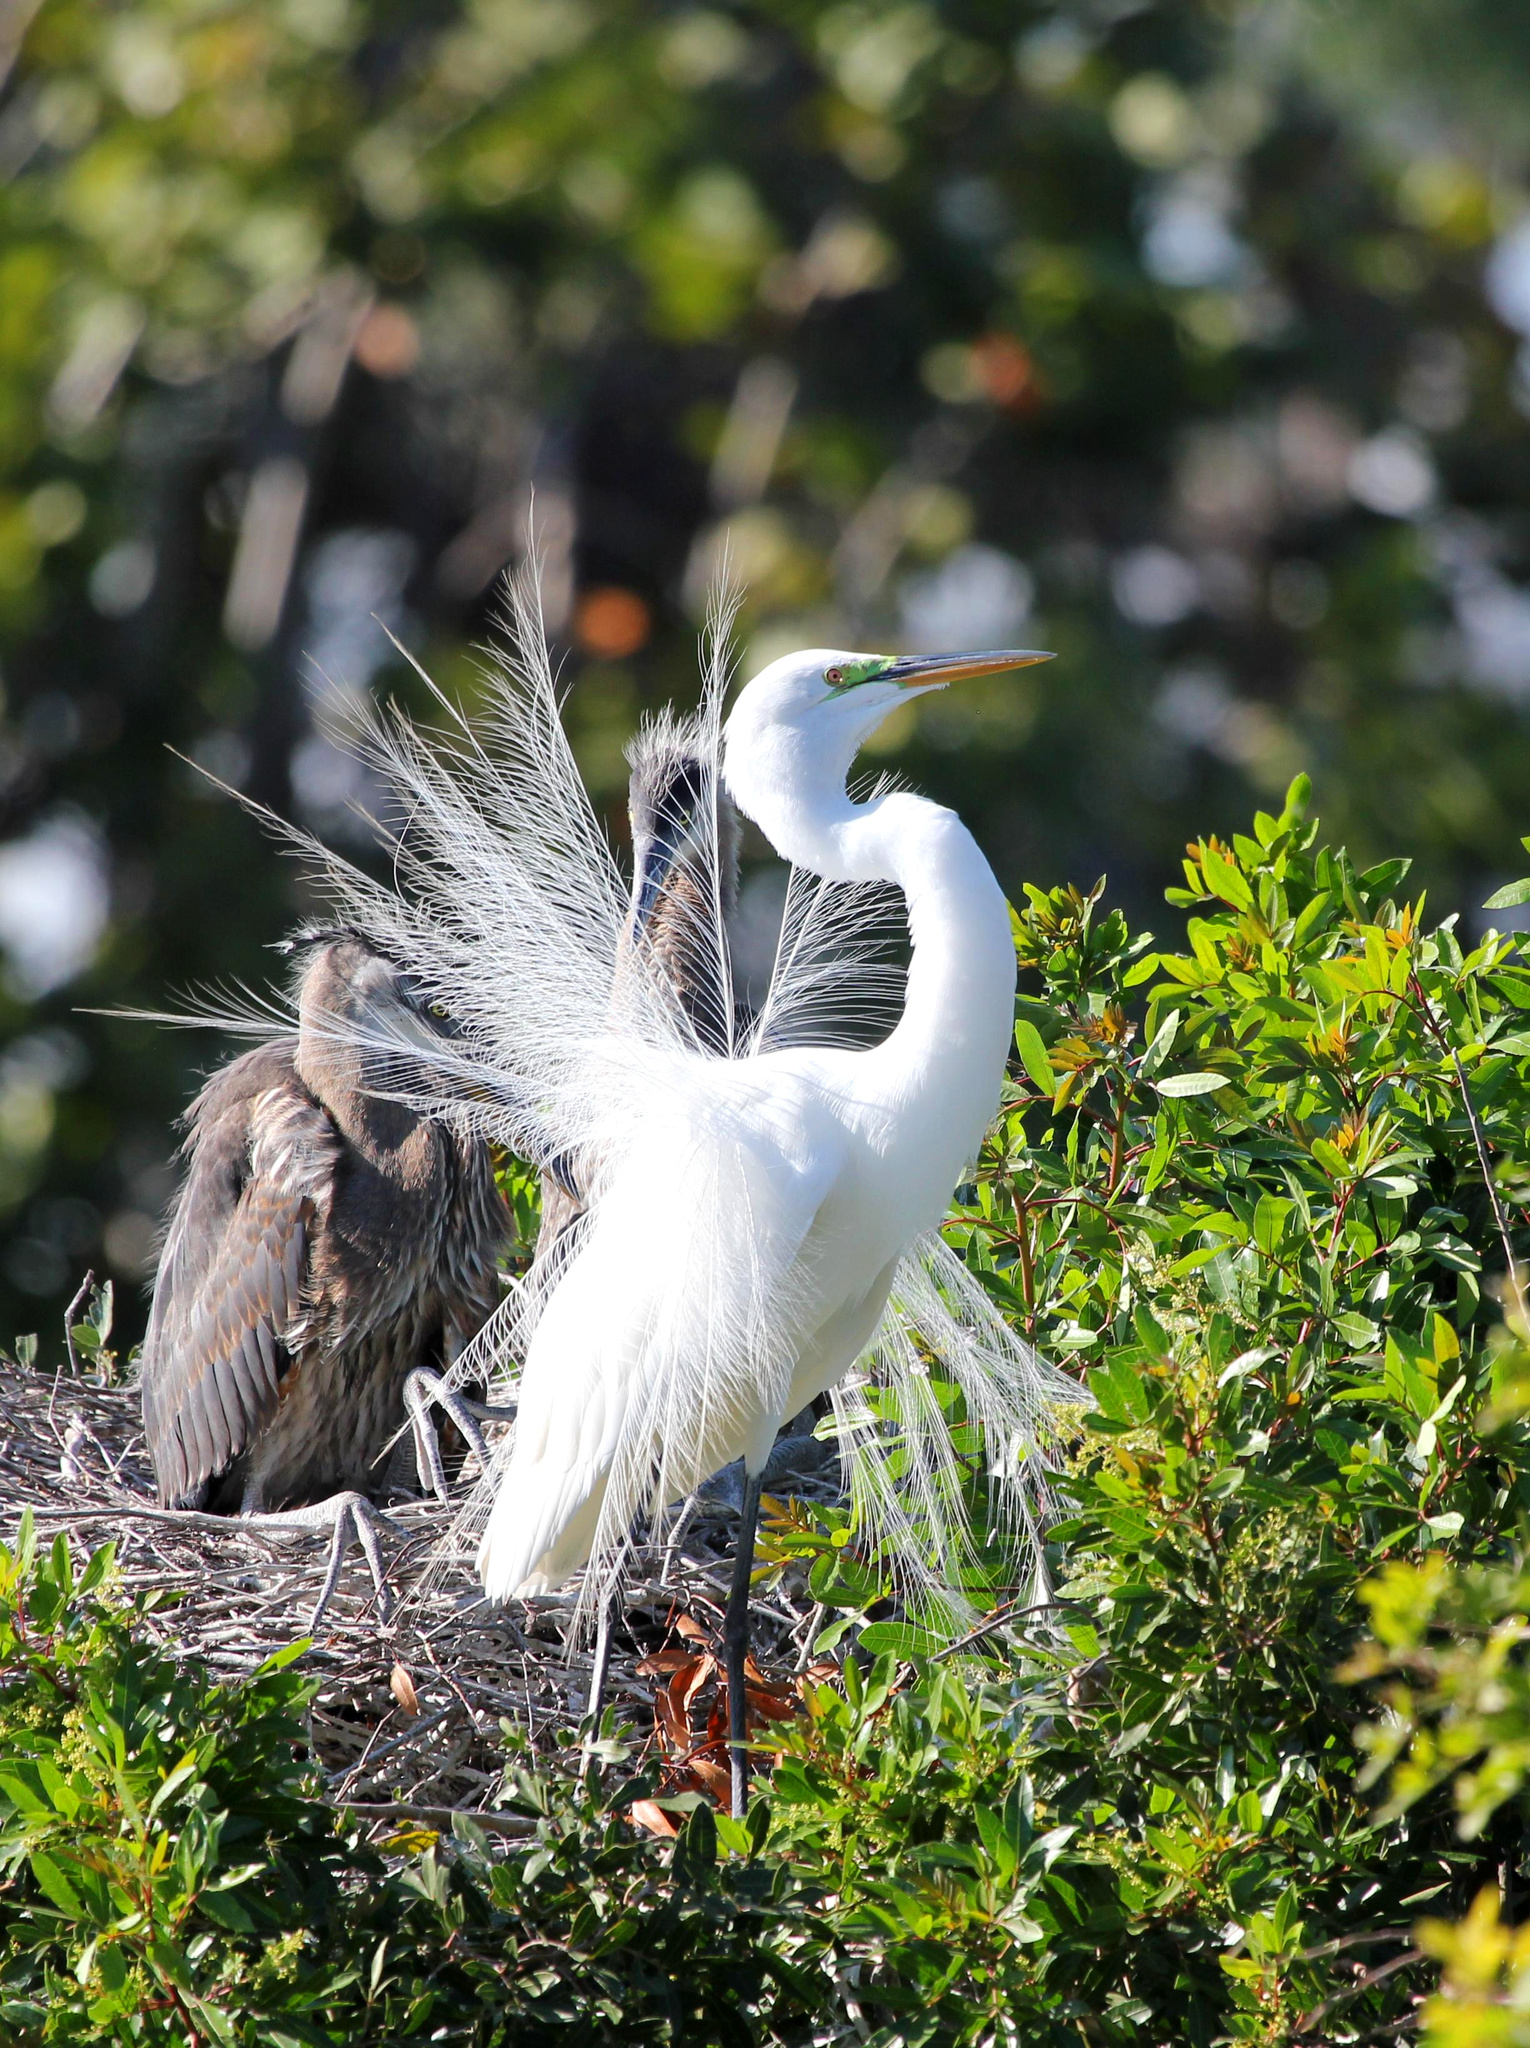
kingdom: Animalia
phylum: Chordata
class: Aves
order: Pelecaniformes
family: Ardeidae
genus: Ardea
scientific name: Ardea alba
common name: Great egret
